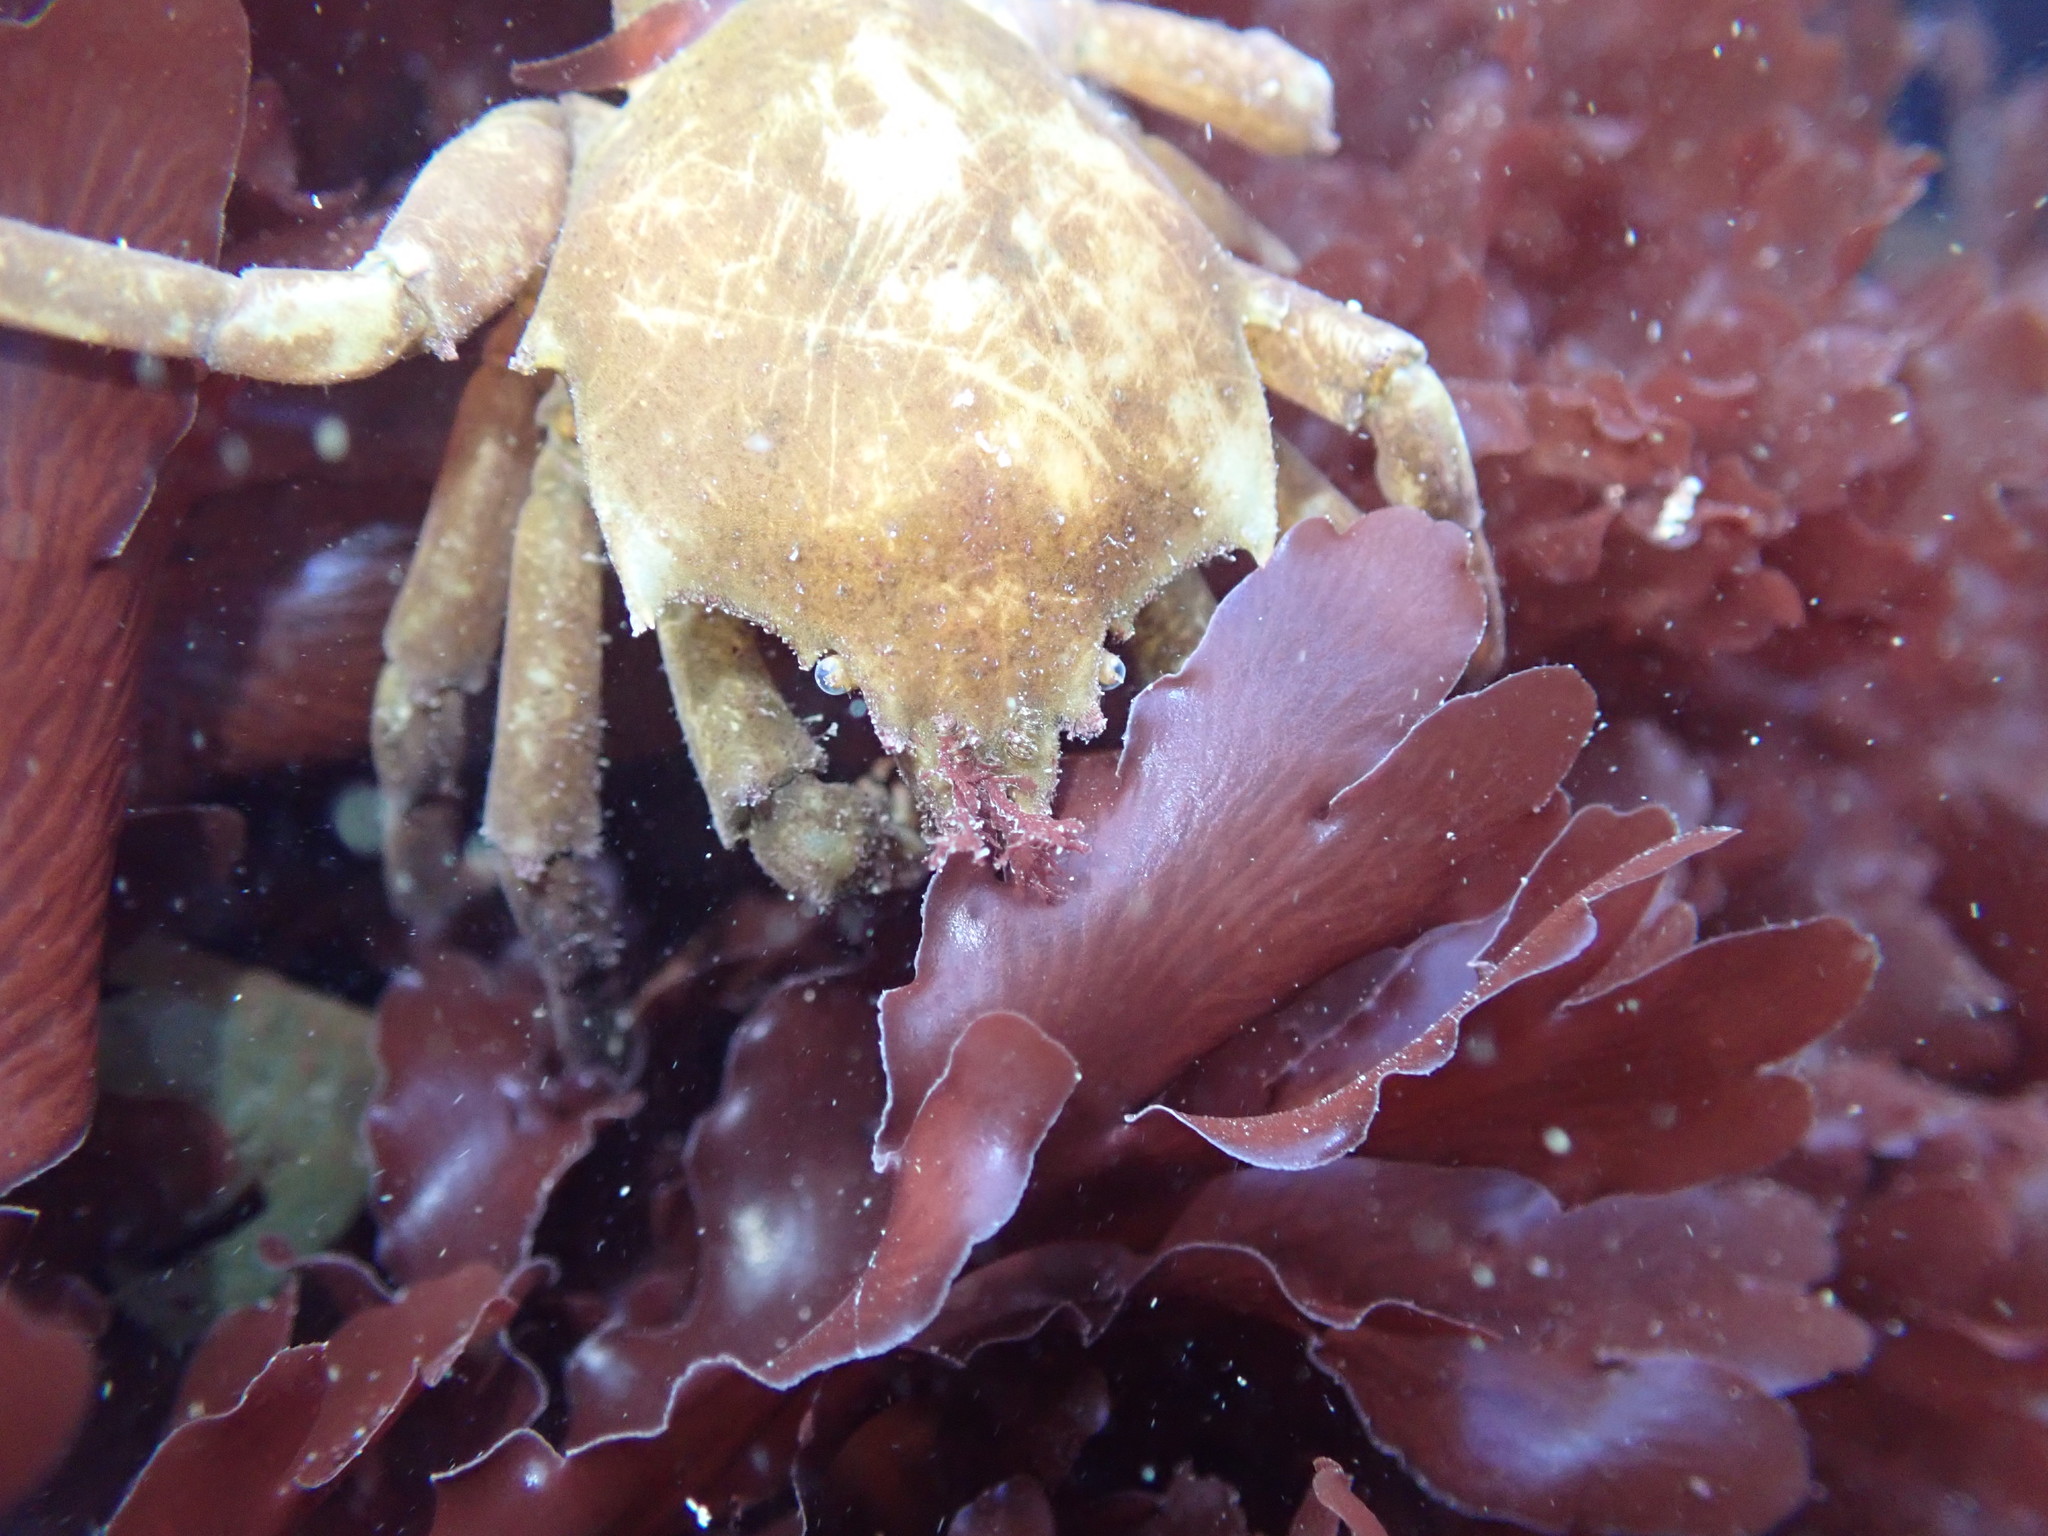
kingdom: Animalia
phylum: Arthropoda
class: Malacostraca
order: Decapoda
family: Epialtidae
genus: Pugettia
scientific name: Pugettia producta
